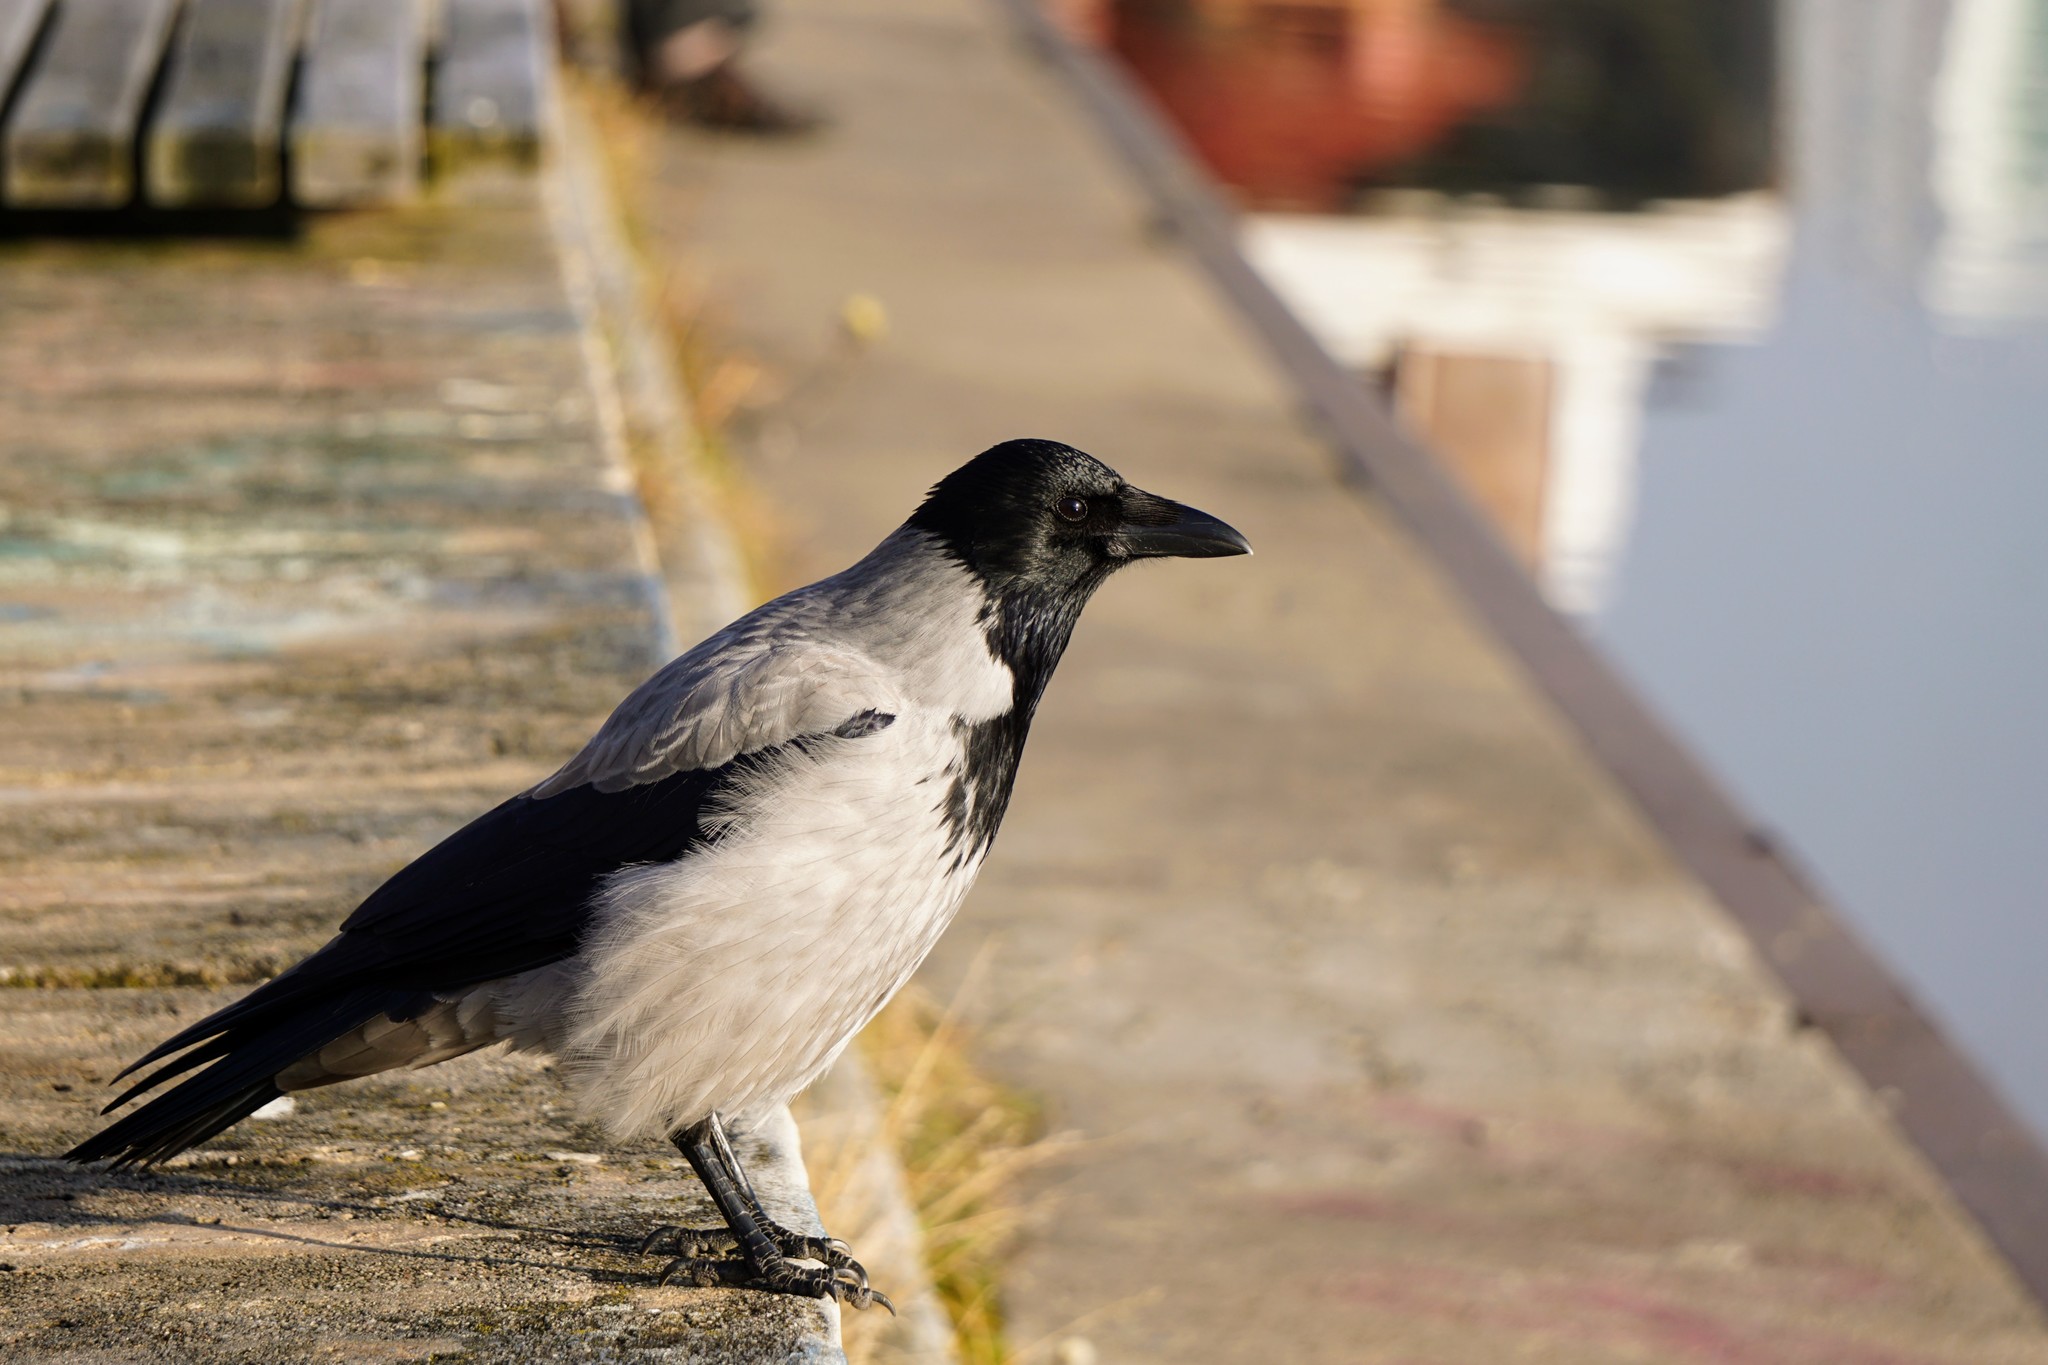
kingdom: Animalia
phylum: Chordata
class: Aves
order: Passeriformes
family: Corvidae
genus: Corvus
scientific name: Corvus cornix
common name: Hooded crow
